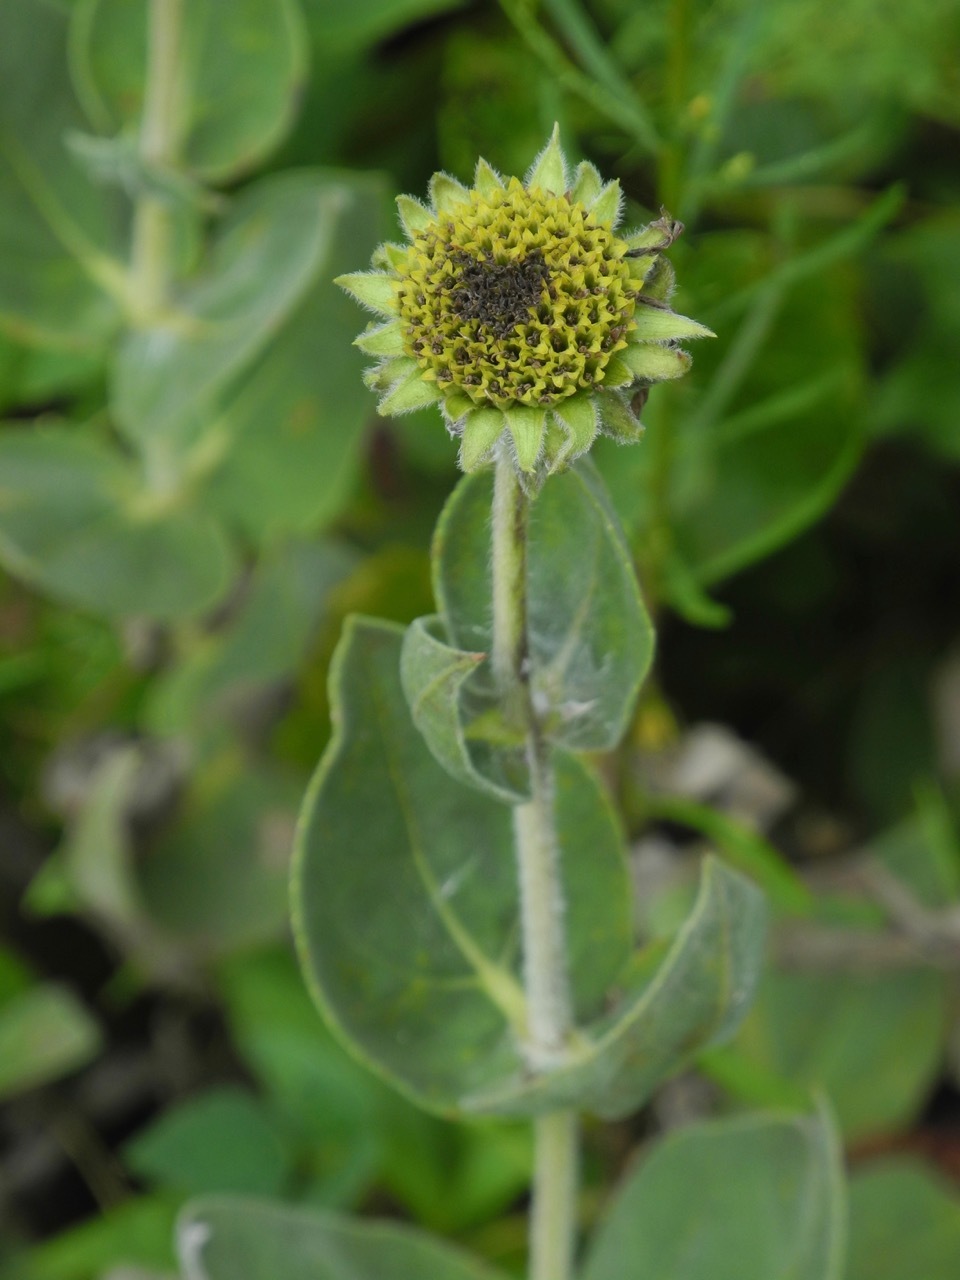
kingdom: Plantae
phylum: Tracheophyta
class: Magnoliopsida
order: Asterales
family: Asteraceae
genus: Helianthus
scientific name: Helianthus mollis
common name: Ashy sunflower
